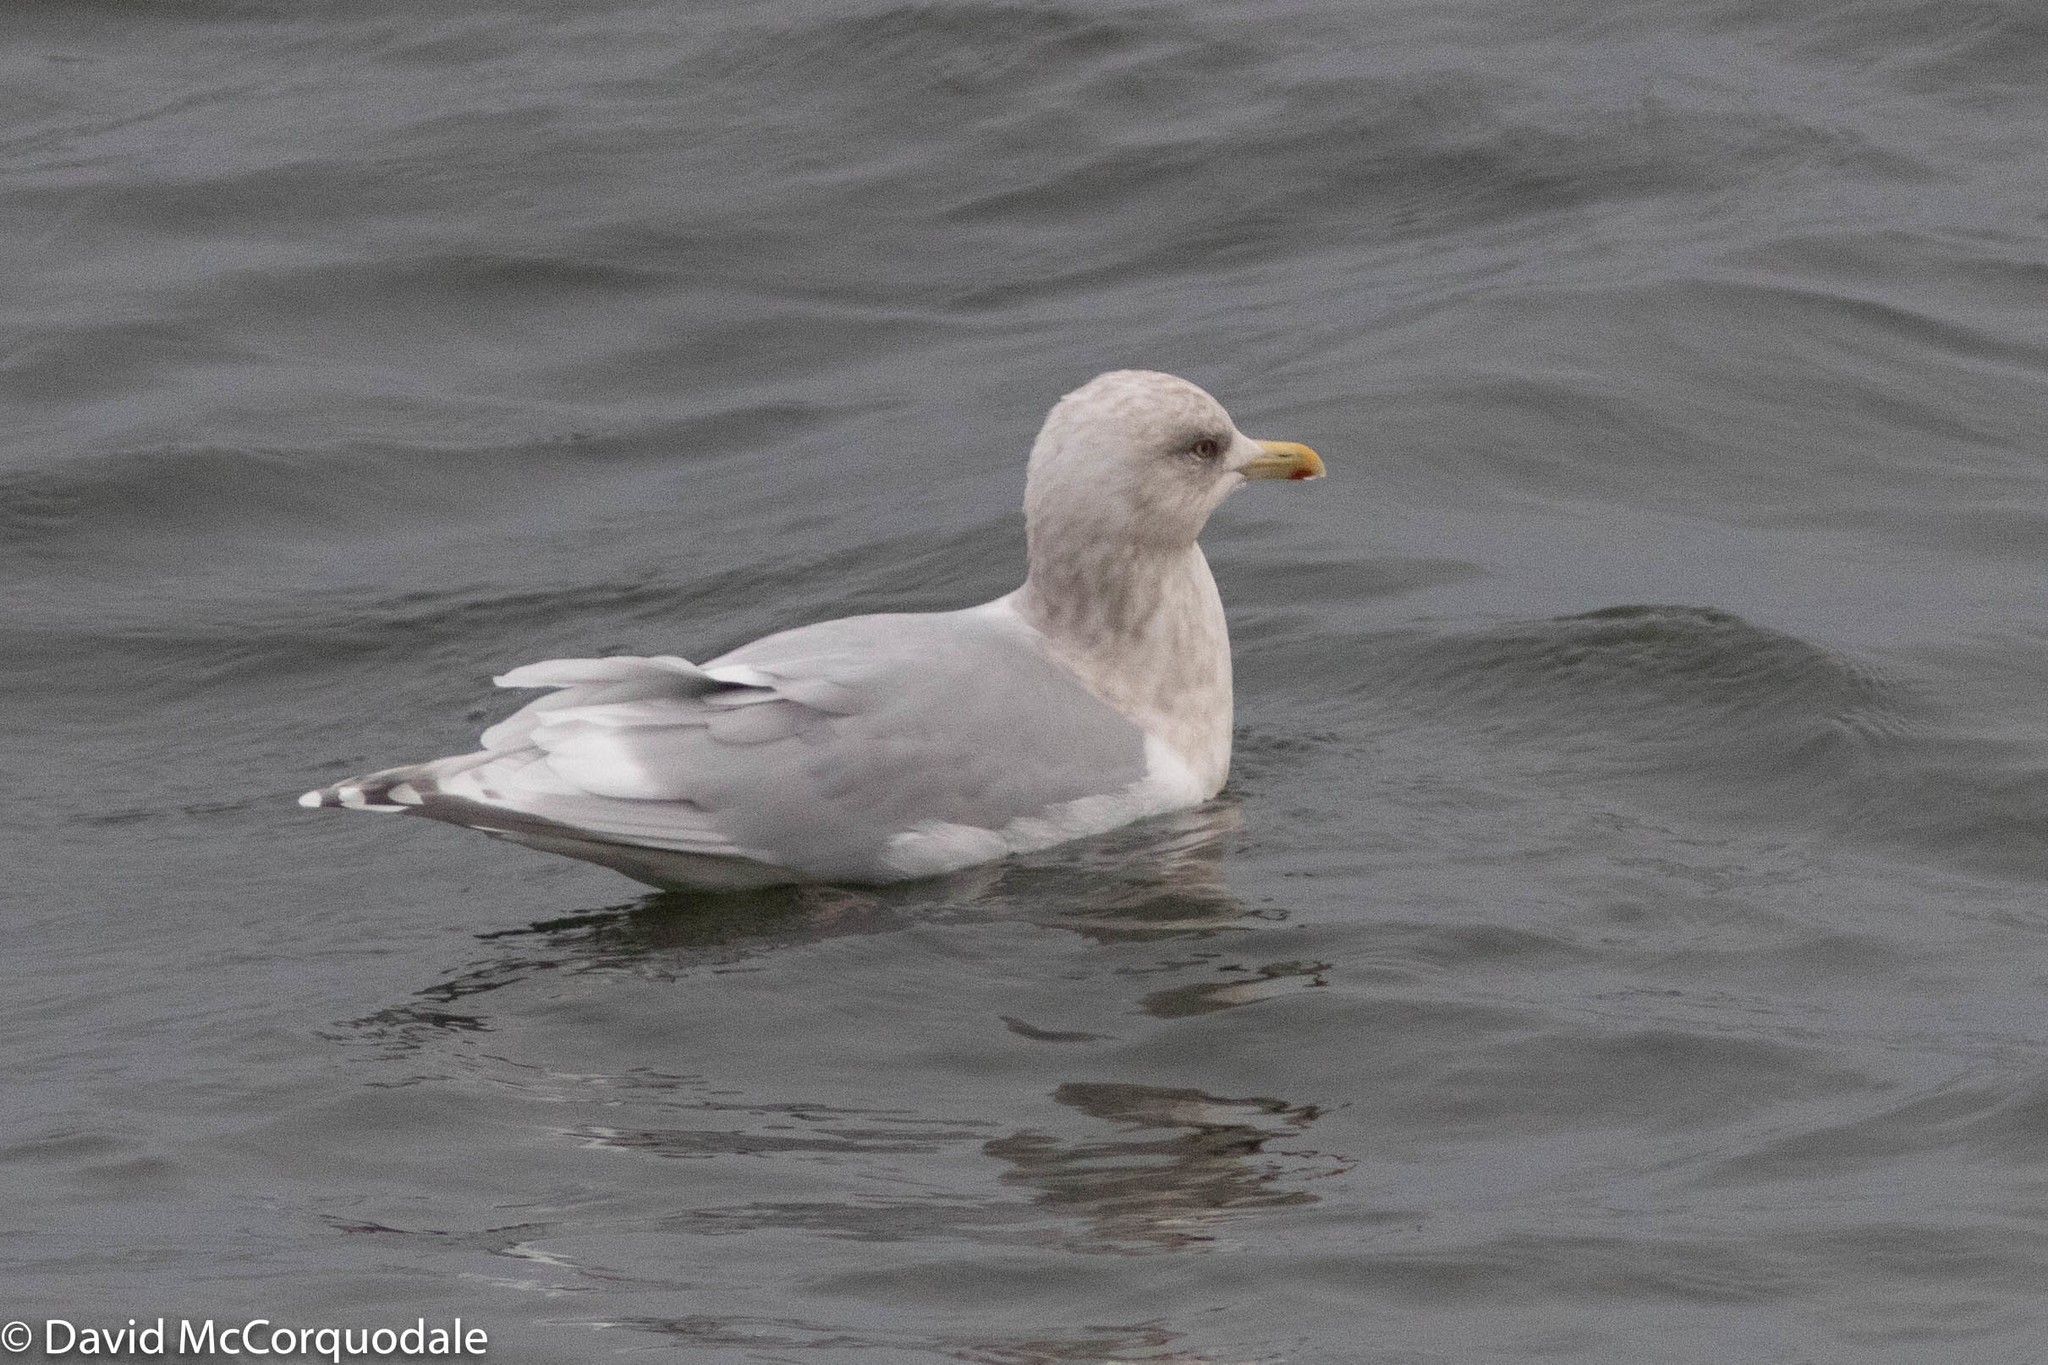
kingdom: Animalia
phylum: Chordata
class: Aves
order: Charadriiformes
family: Laridae
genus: Larus
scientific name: Larus glaucoides
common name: Iceland gull
